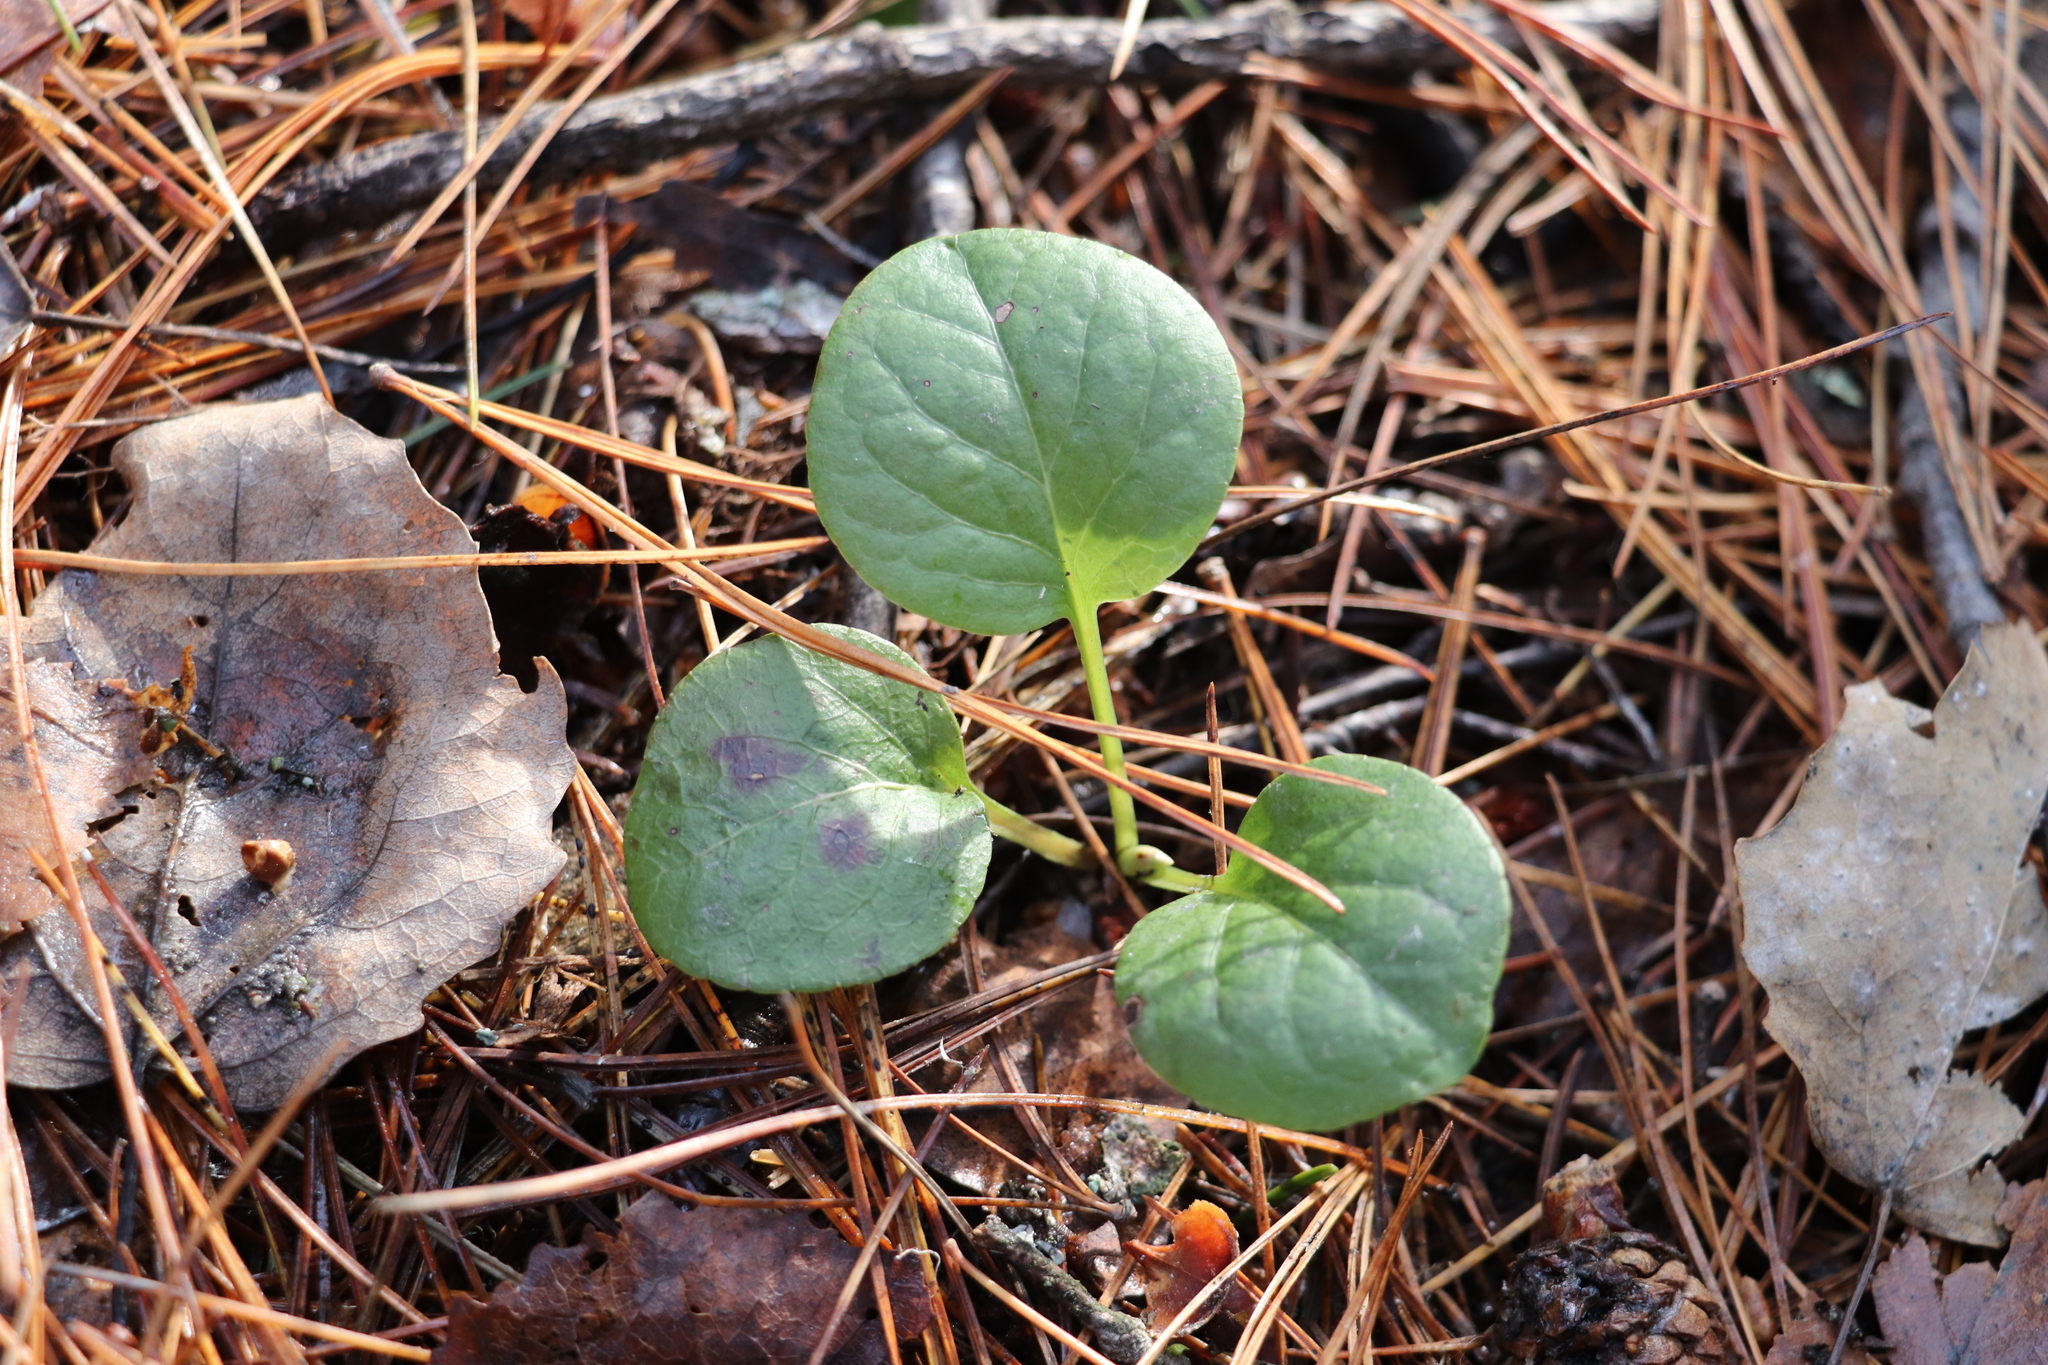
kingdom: Plantae
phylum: Tracheophyta
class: Magnoliopsida
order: Ericales
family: Ericaceae
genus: Pyrola
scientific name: Pyrola rotundifolia
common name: Round-leaved wintergreen
